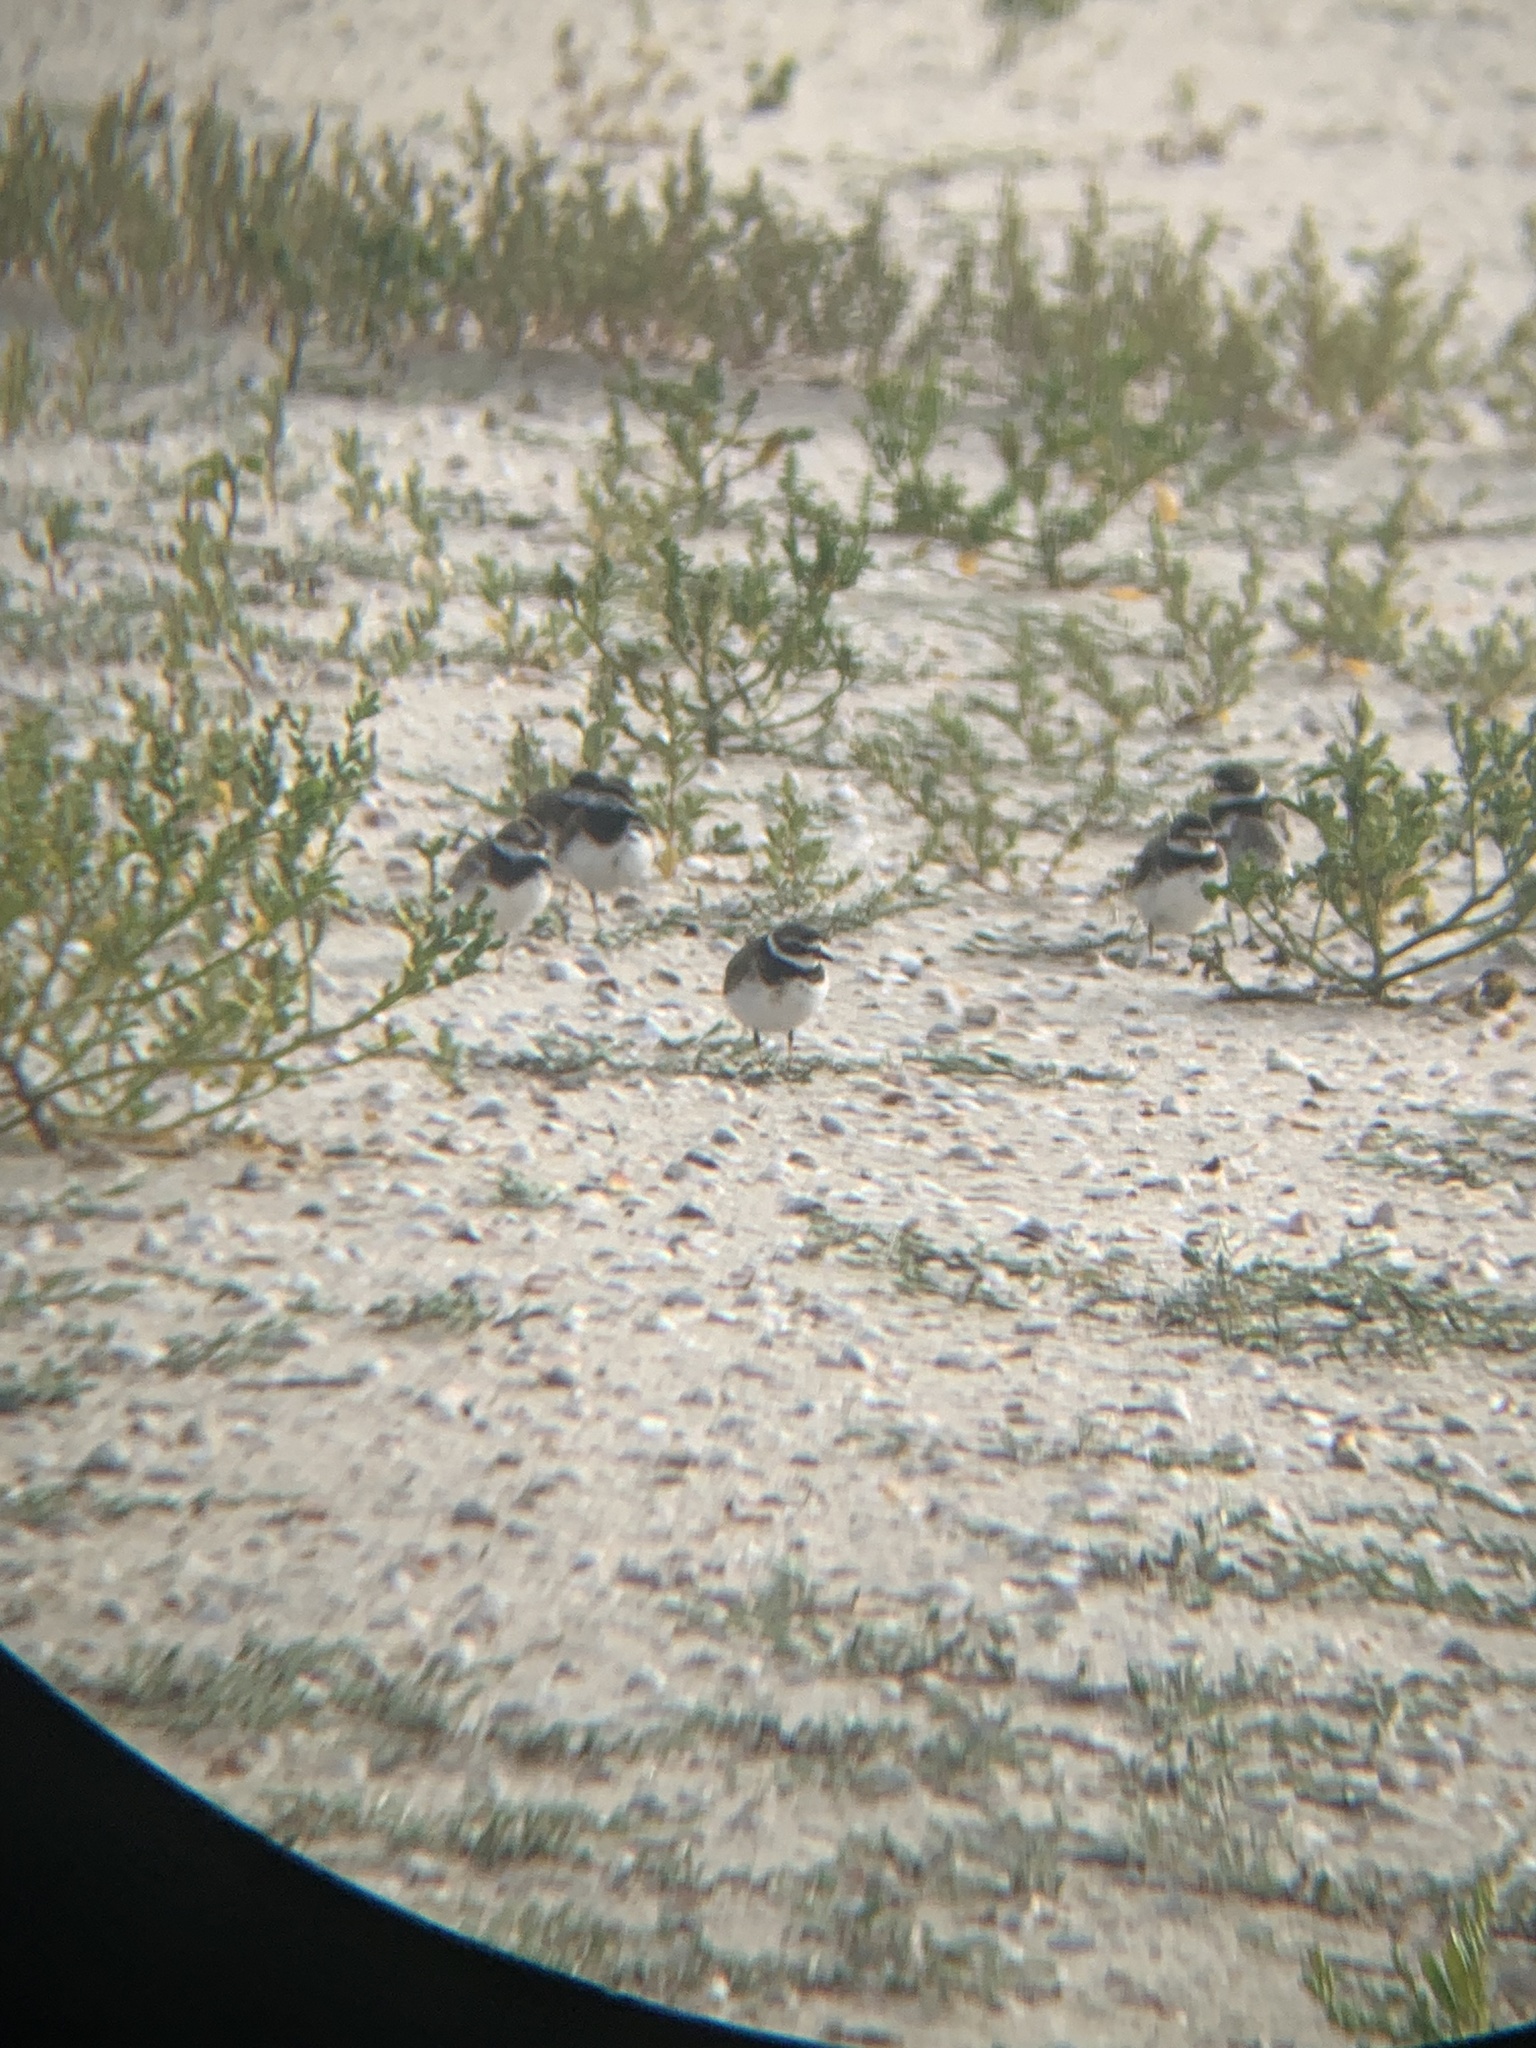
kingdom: Animalia
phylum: Chordata
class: Aves
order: Charadriiformes
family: Charadriidae
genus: Charadrius
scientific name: Charadrius semipalmatus
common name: Semipalmated plover
